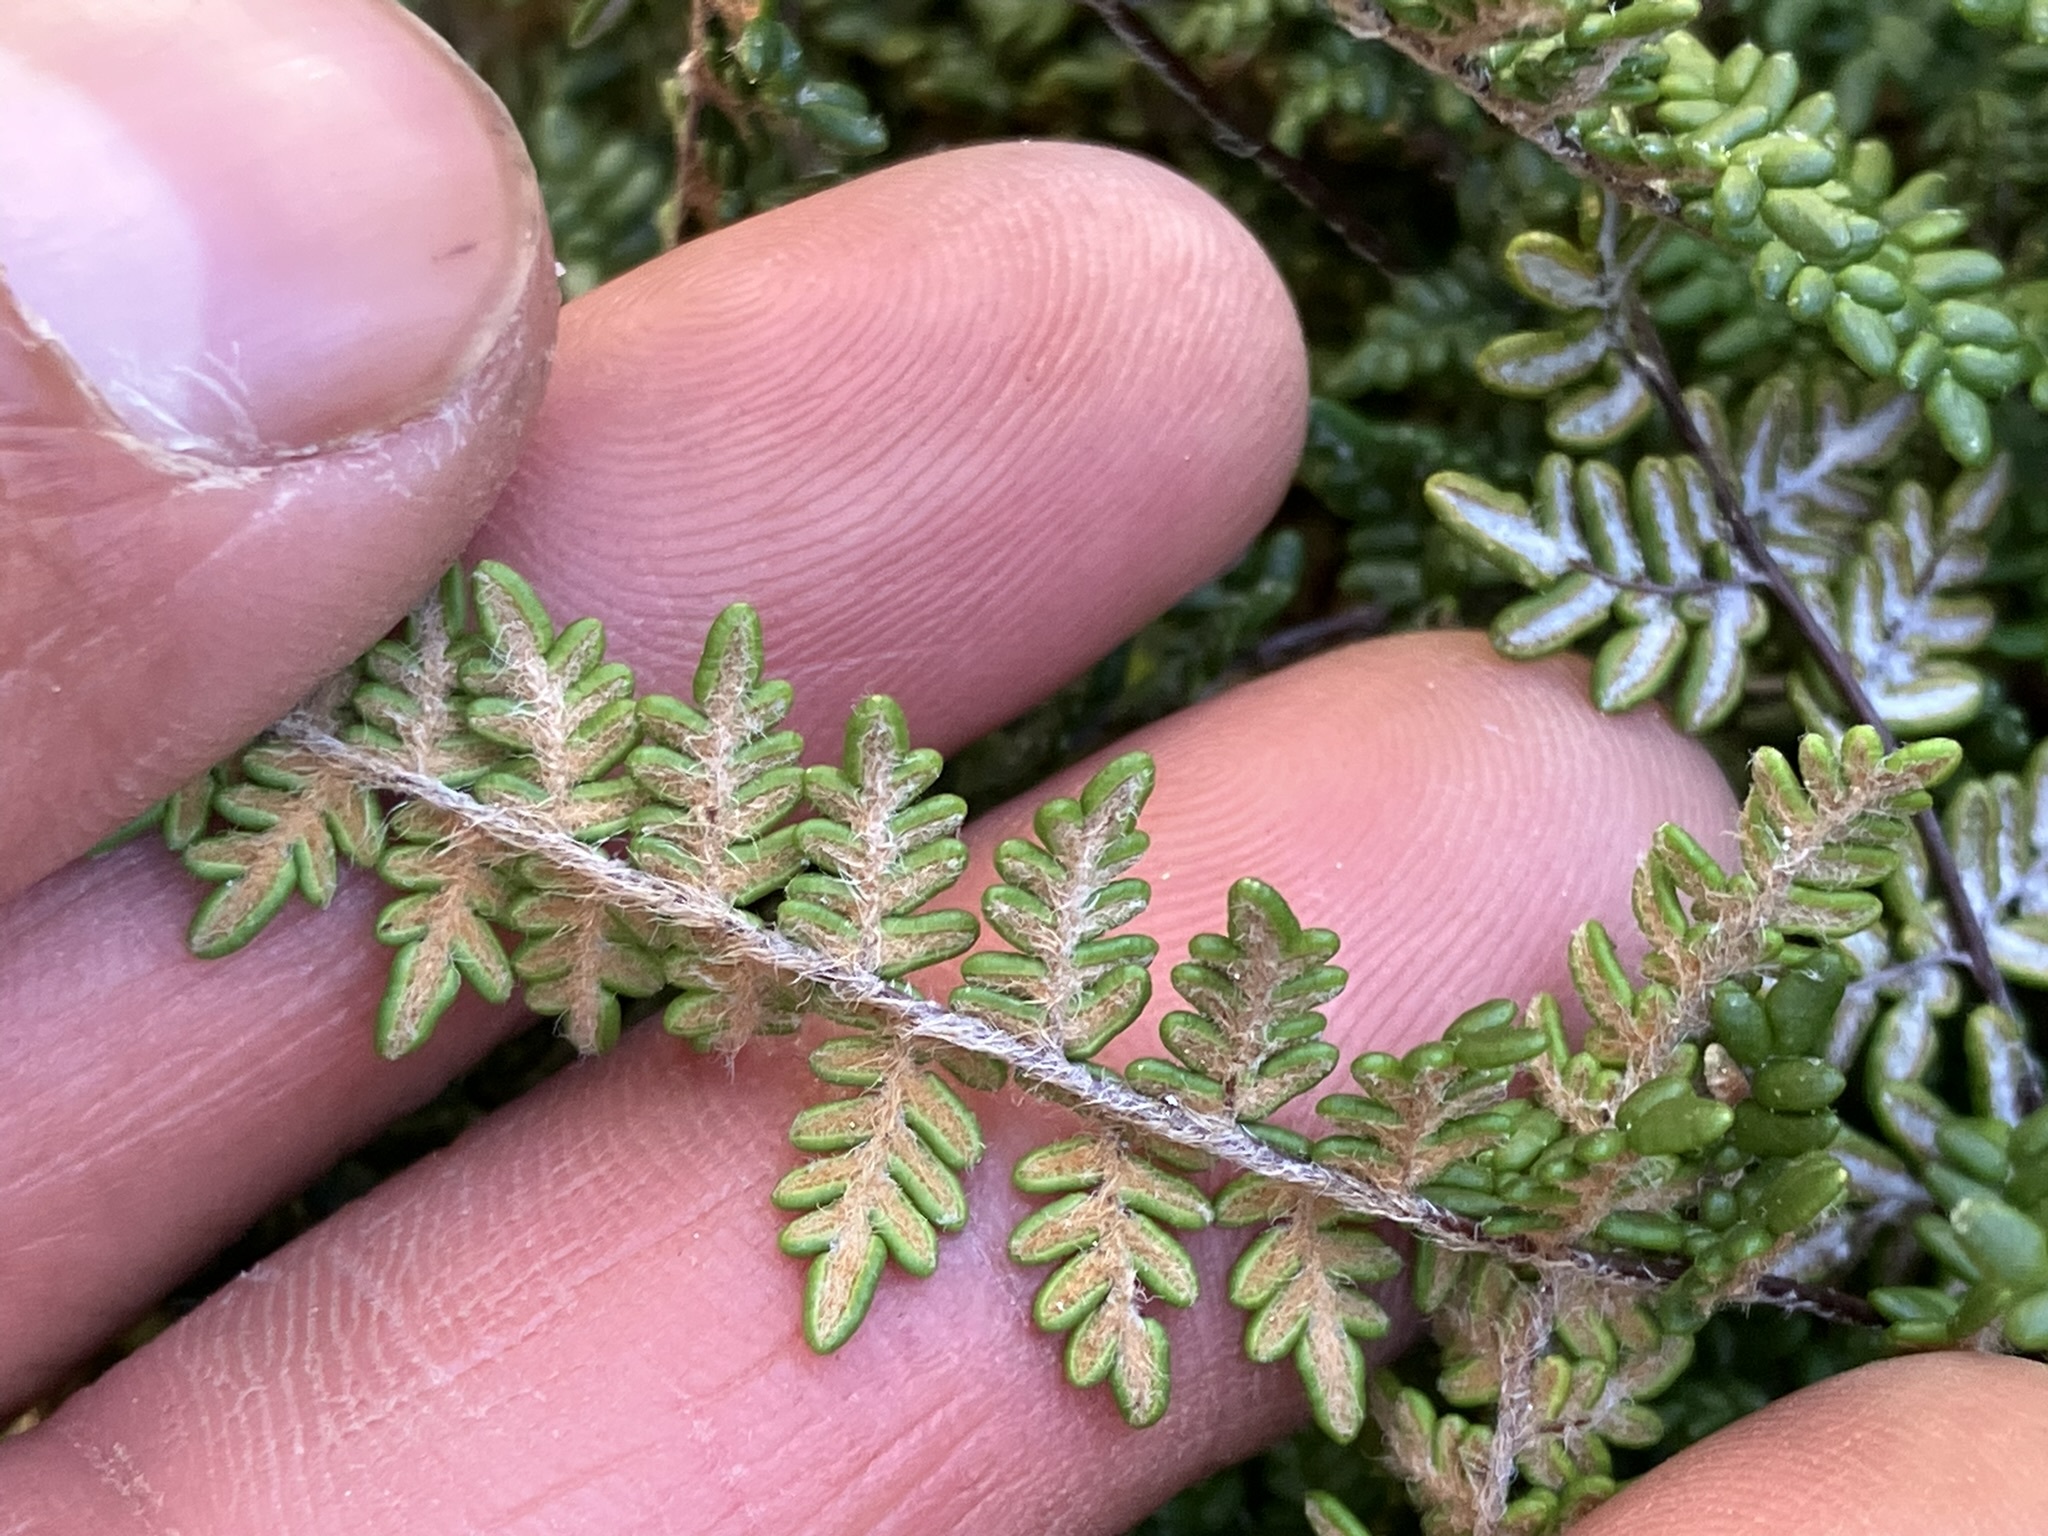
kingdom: Plantae
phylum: Tracheophyta
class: Polypodiopsida
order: Polypodiales
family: Pteridaceae
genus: Myriopteris
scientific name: Myriopteris gracillima
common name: Lace fern
